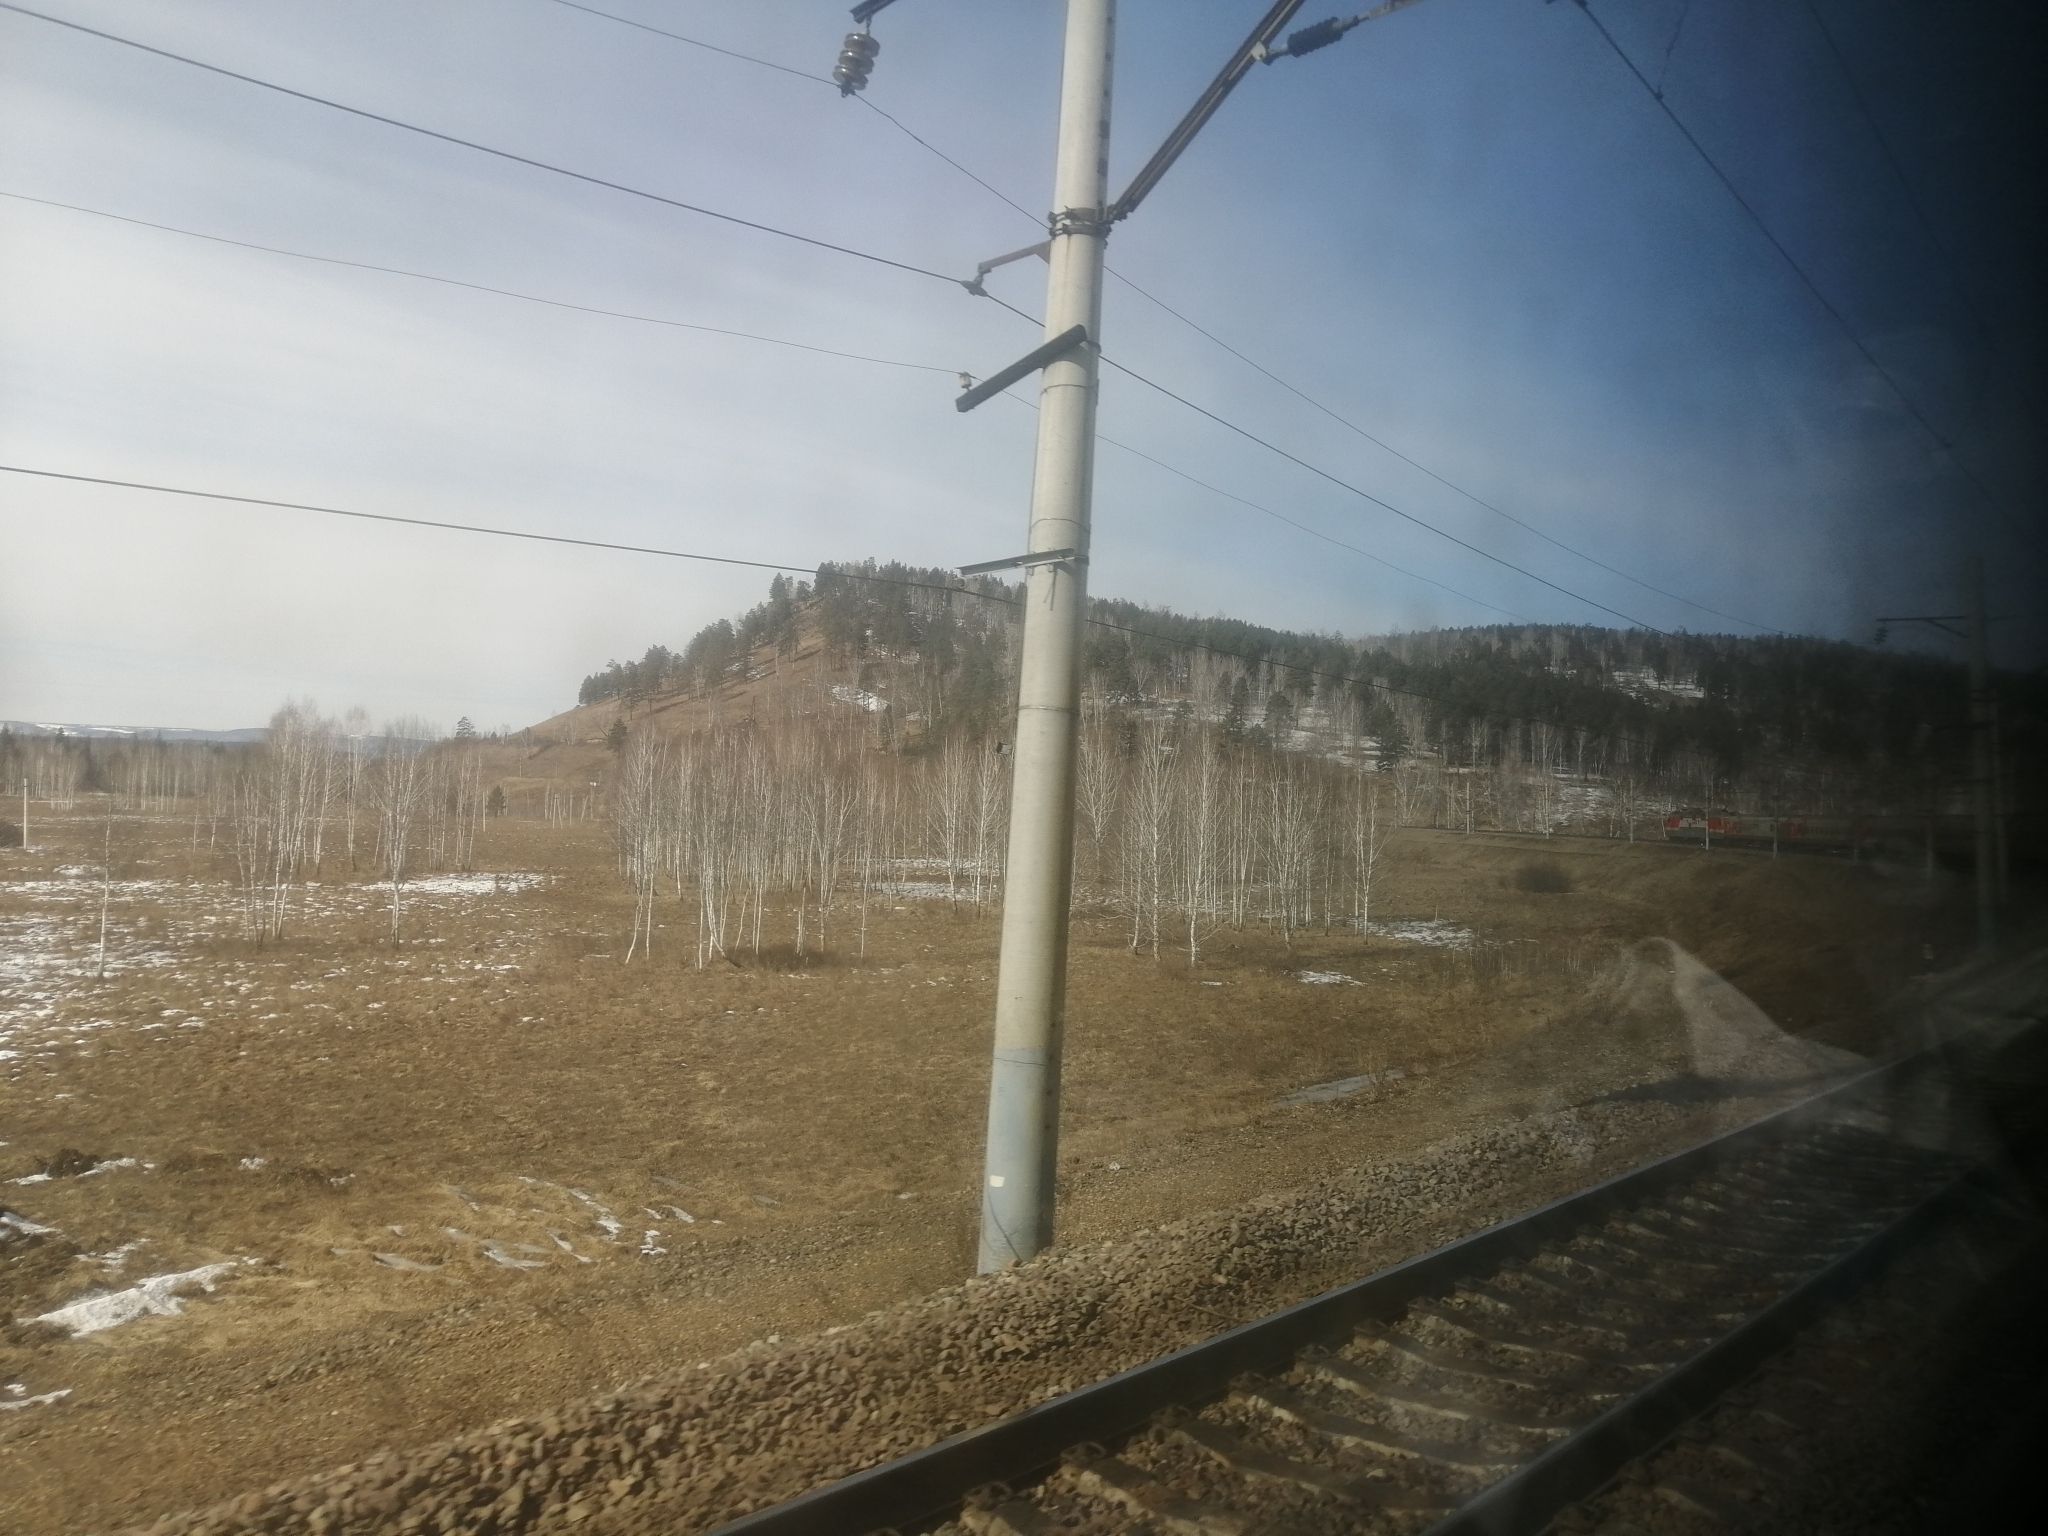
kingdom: Plantae
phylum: Tracheophyta
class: Pinopsida
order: Pinales
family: Pinaceae
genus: Pinus
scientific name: Pinus sylvestris
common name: Scots pine
